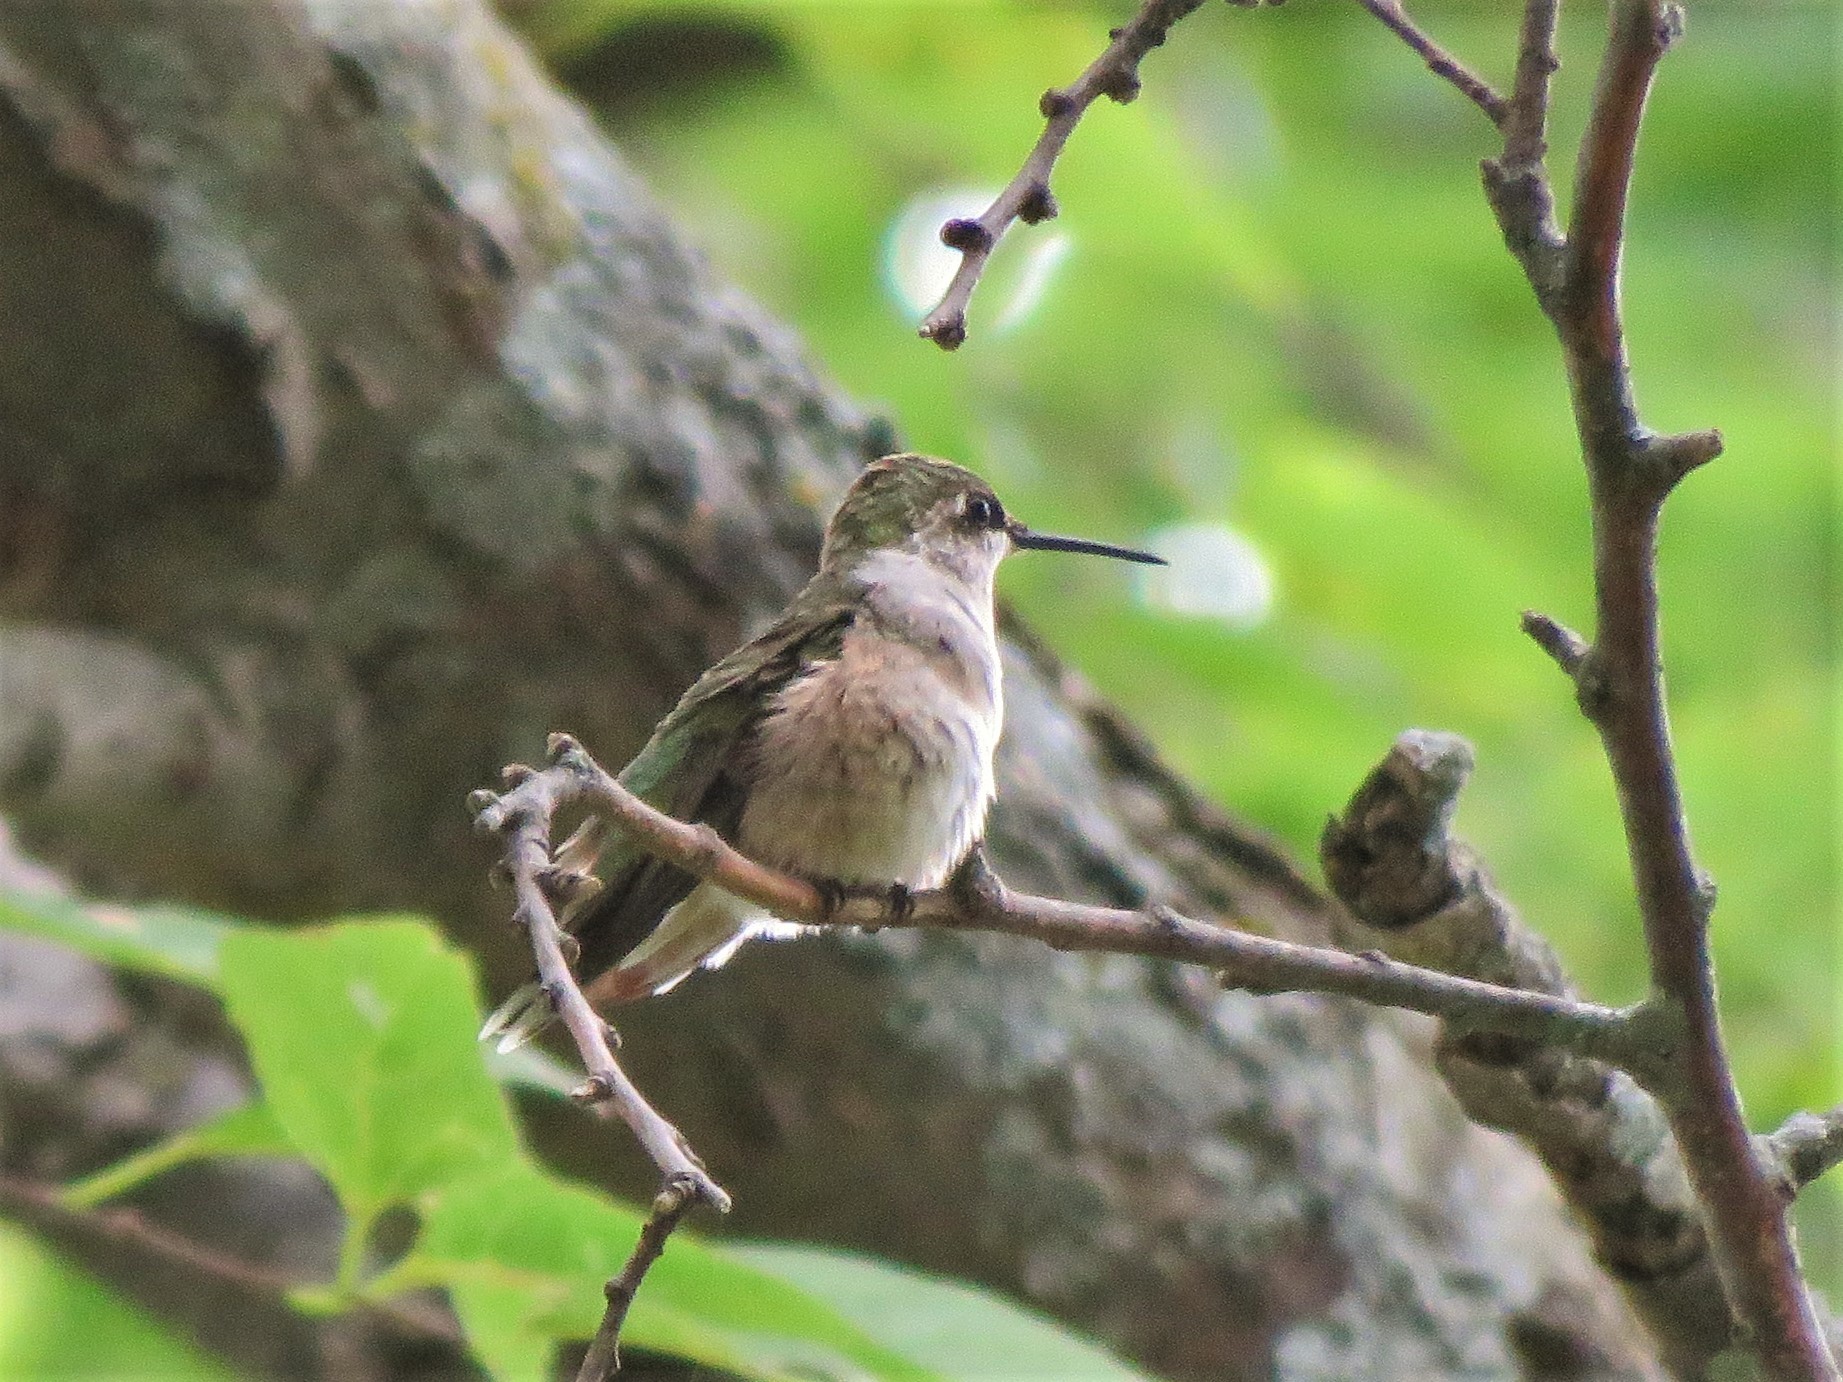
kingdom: Animalia
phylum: Chordata
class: Aves
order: Apodiformes
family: Trochilidae
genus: Archilochus
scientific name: Archilochus colubris
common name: Ruby-throated hummingbird
